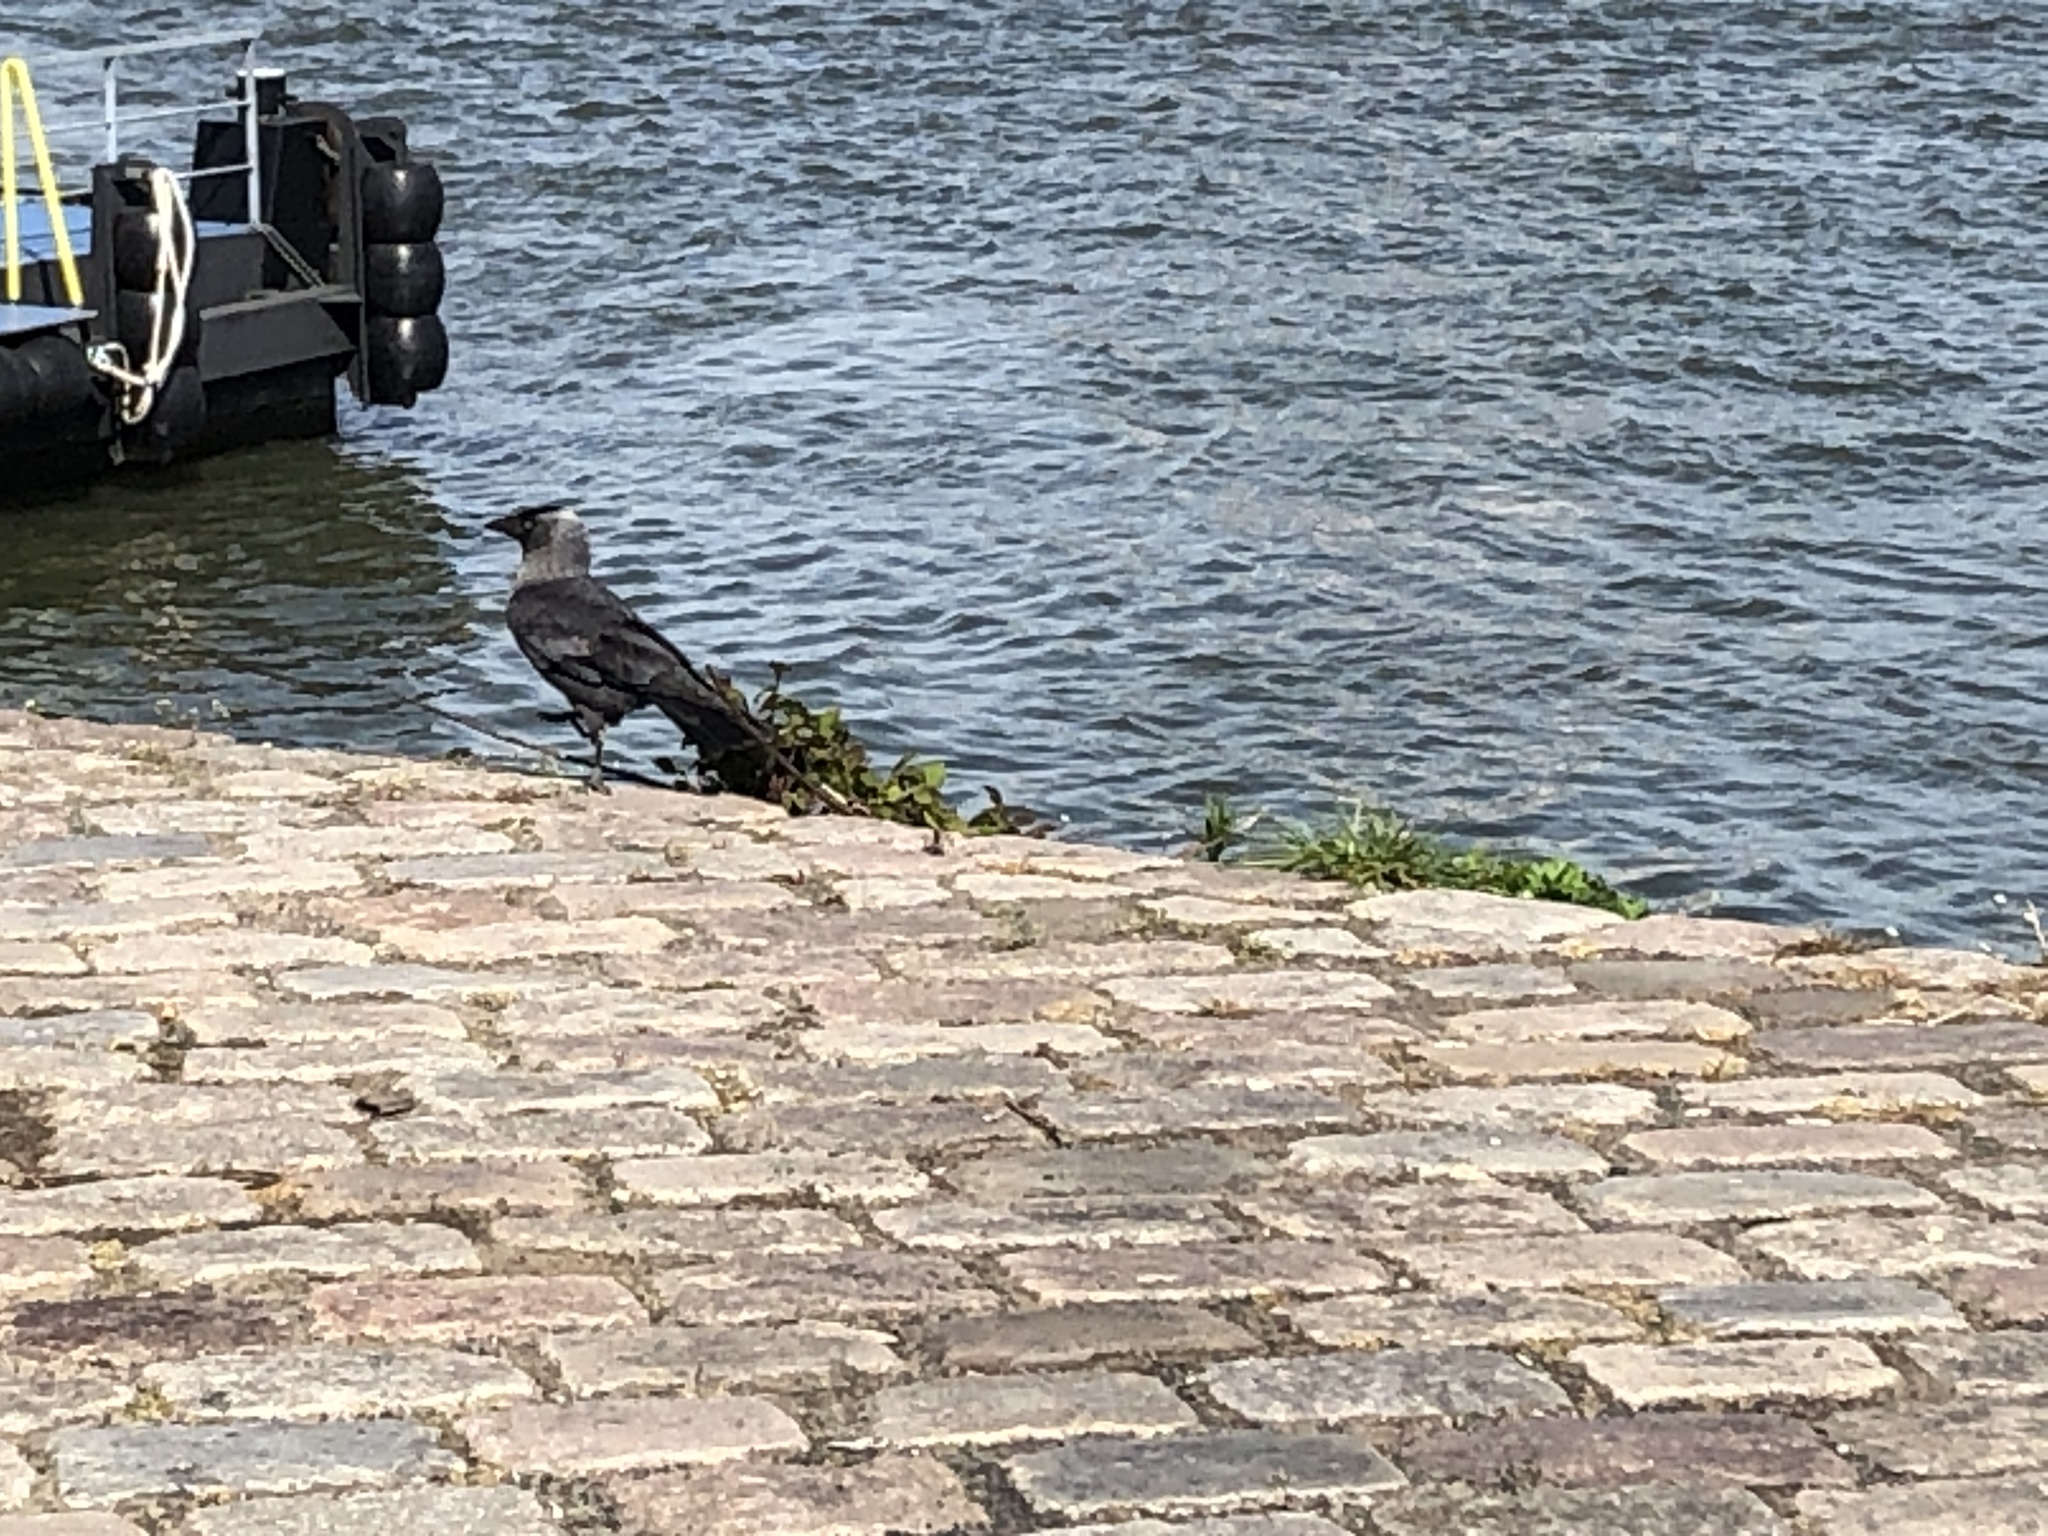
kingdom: Animalia
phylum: Chordata
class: Aves
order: Passeriformes
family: Corvidae
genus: Coloeus
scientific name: Coloeus monedula
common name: Western jackdaw
